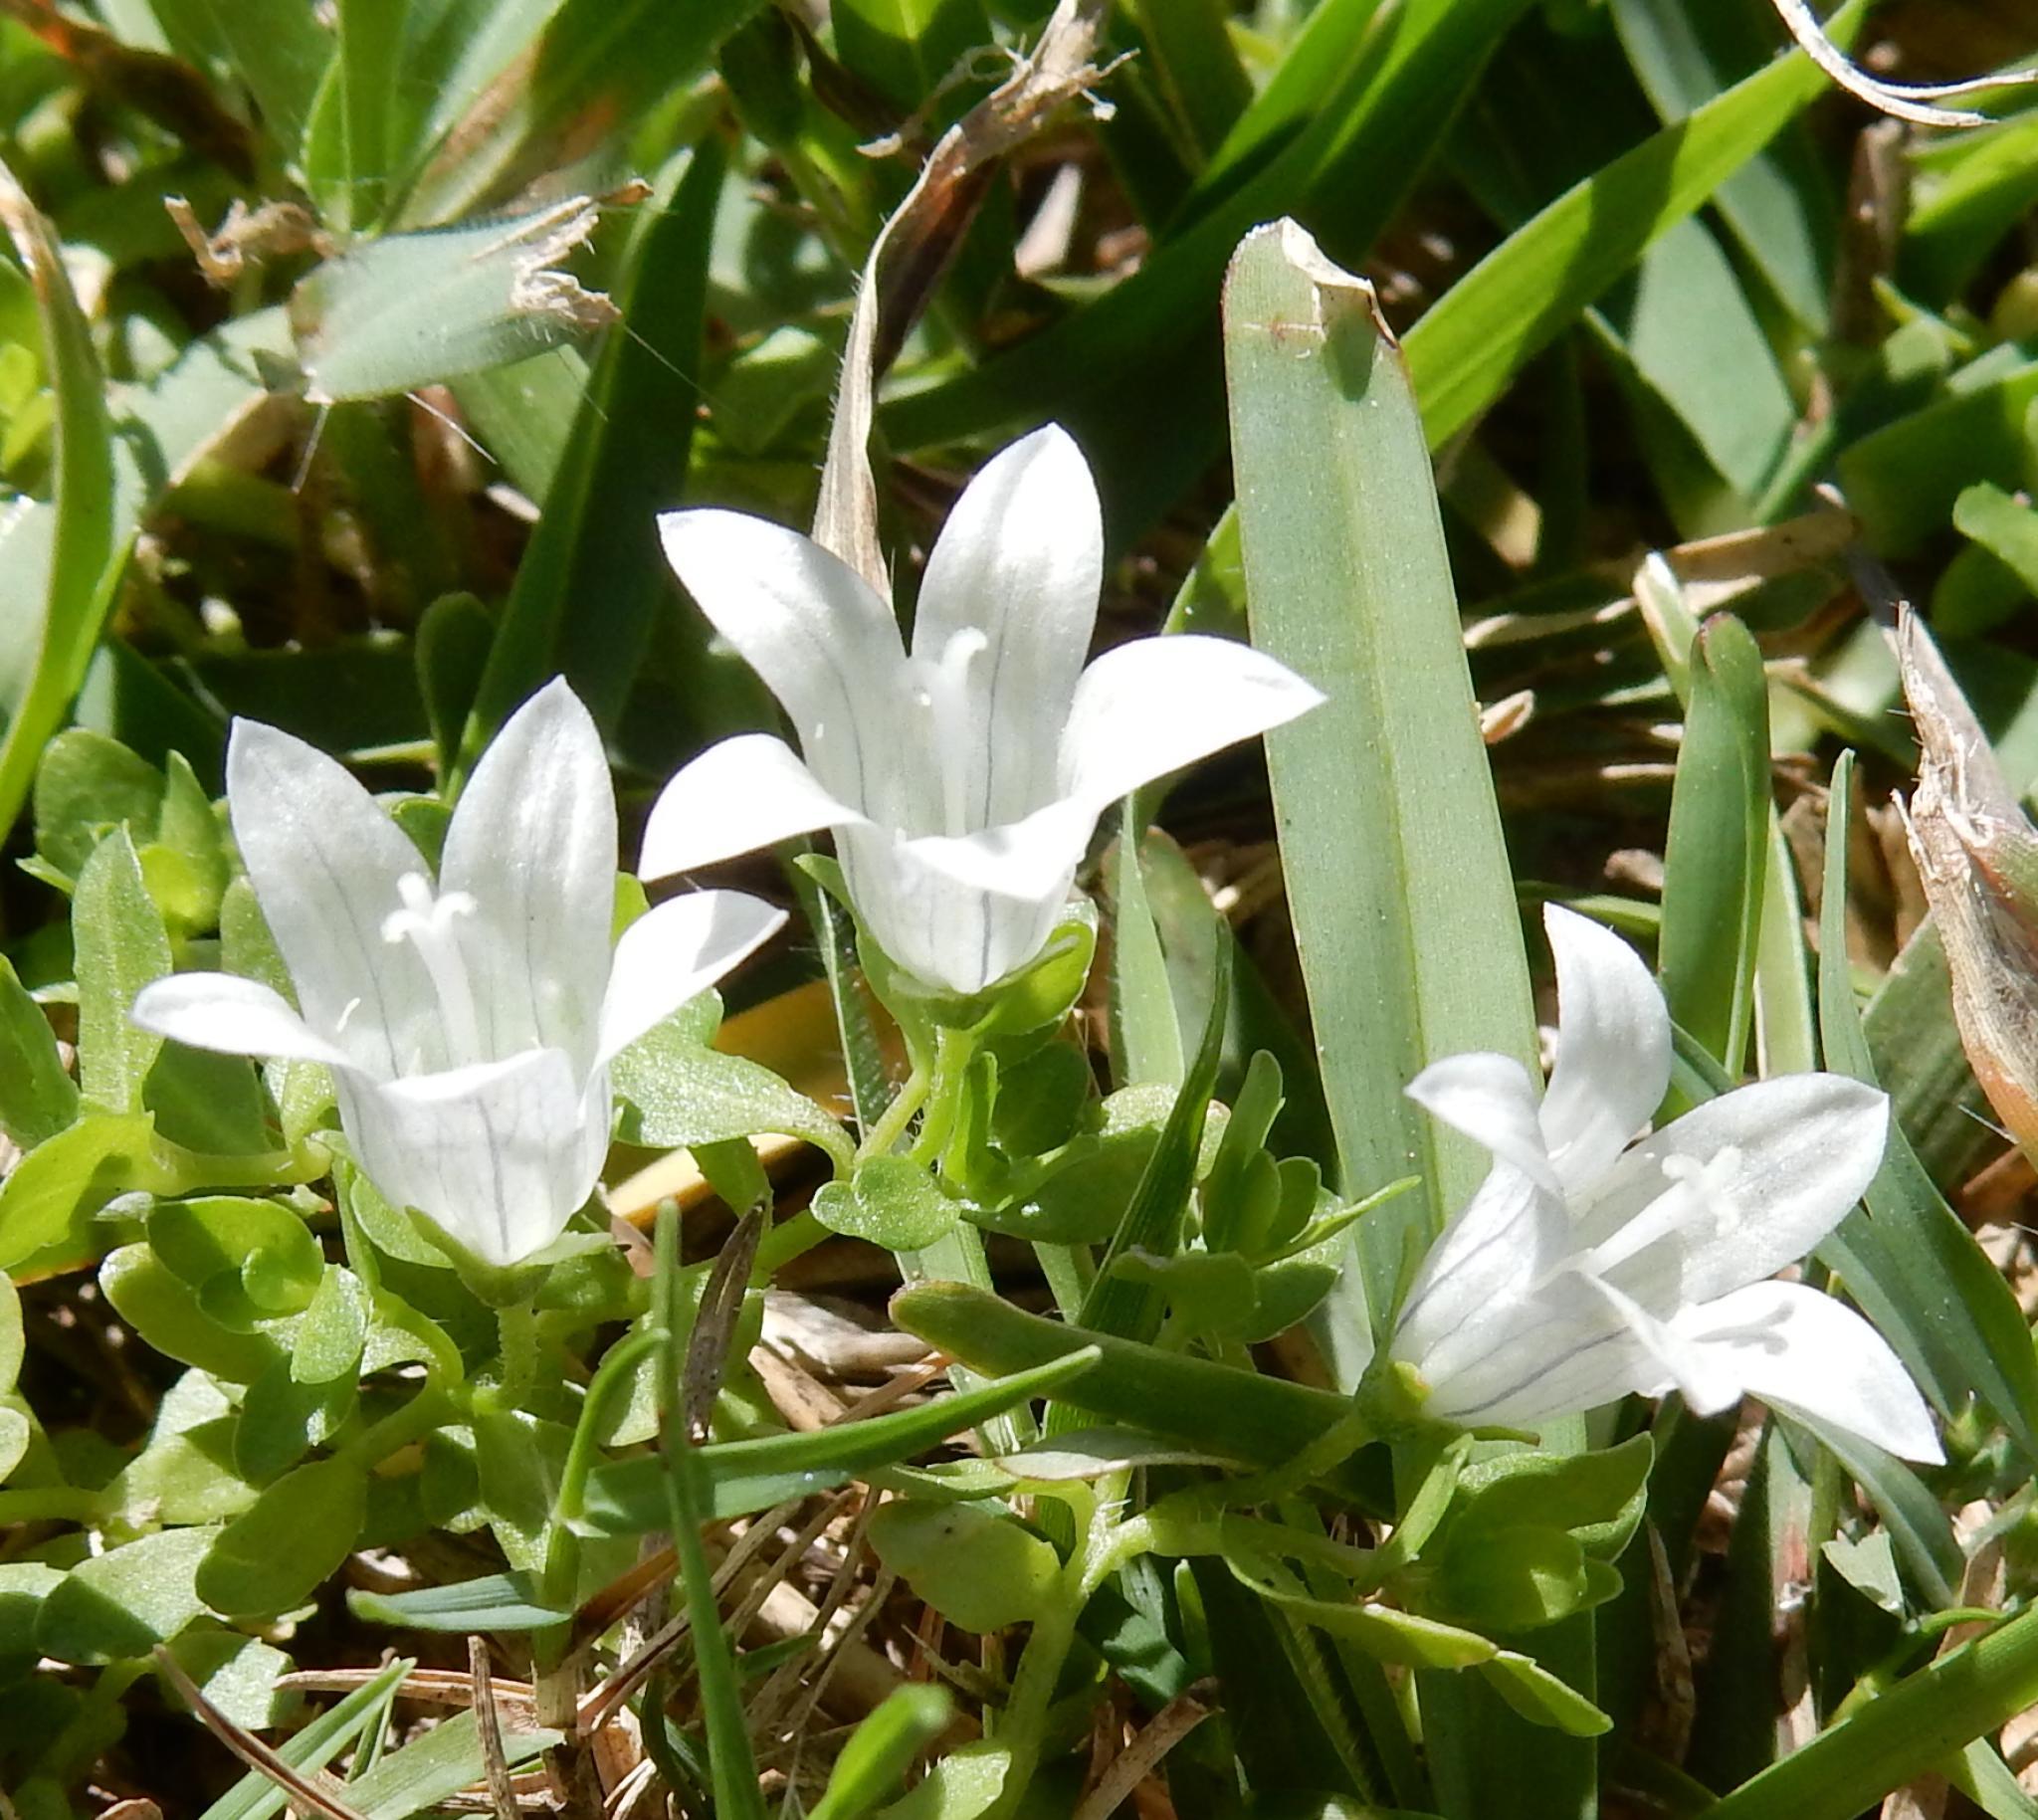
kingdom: Plantae
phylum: Tracheophyta
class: Magnoliopsida
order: Asterales
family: Campanulaceae
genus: Wahlenbergia
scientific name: Wahlenbergia procumbens
